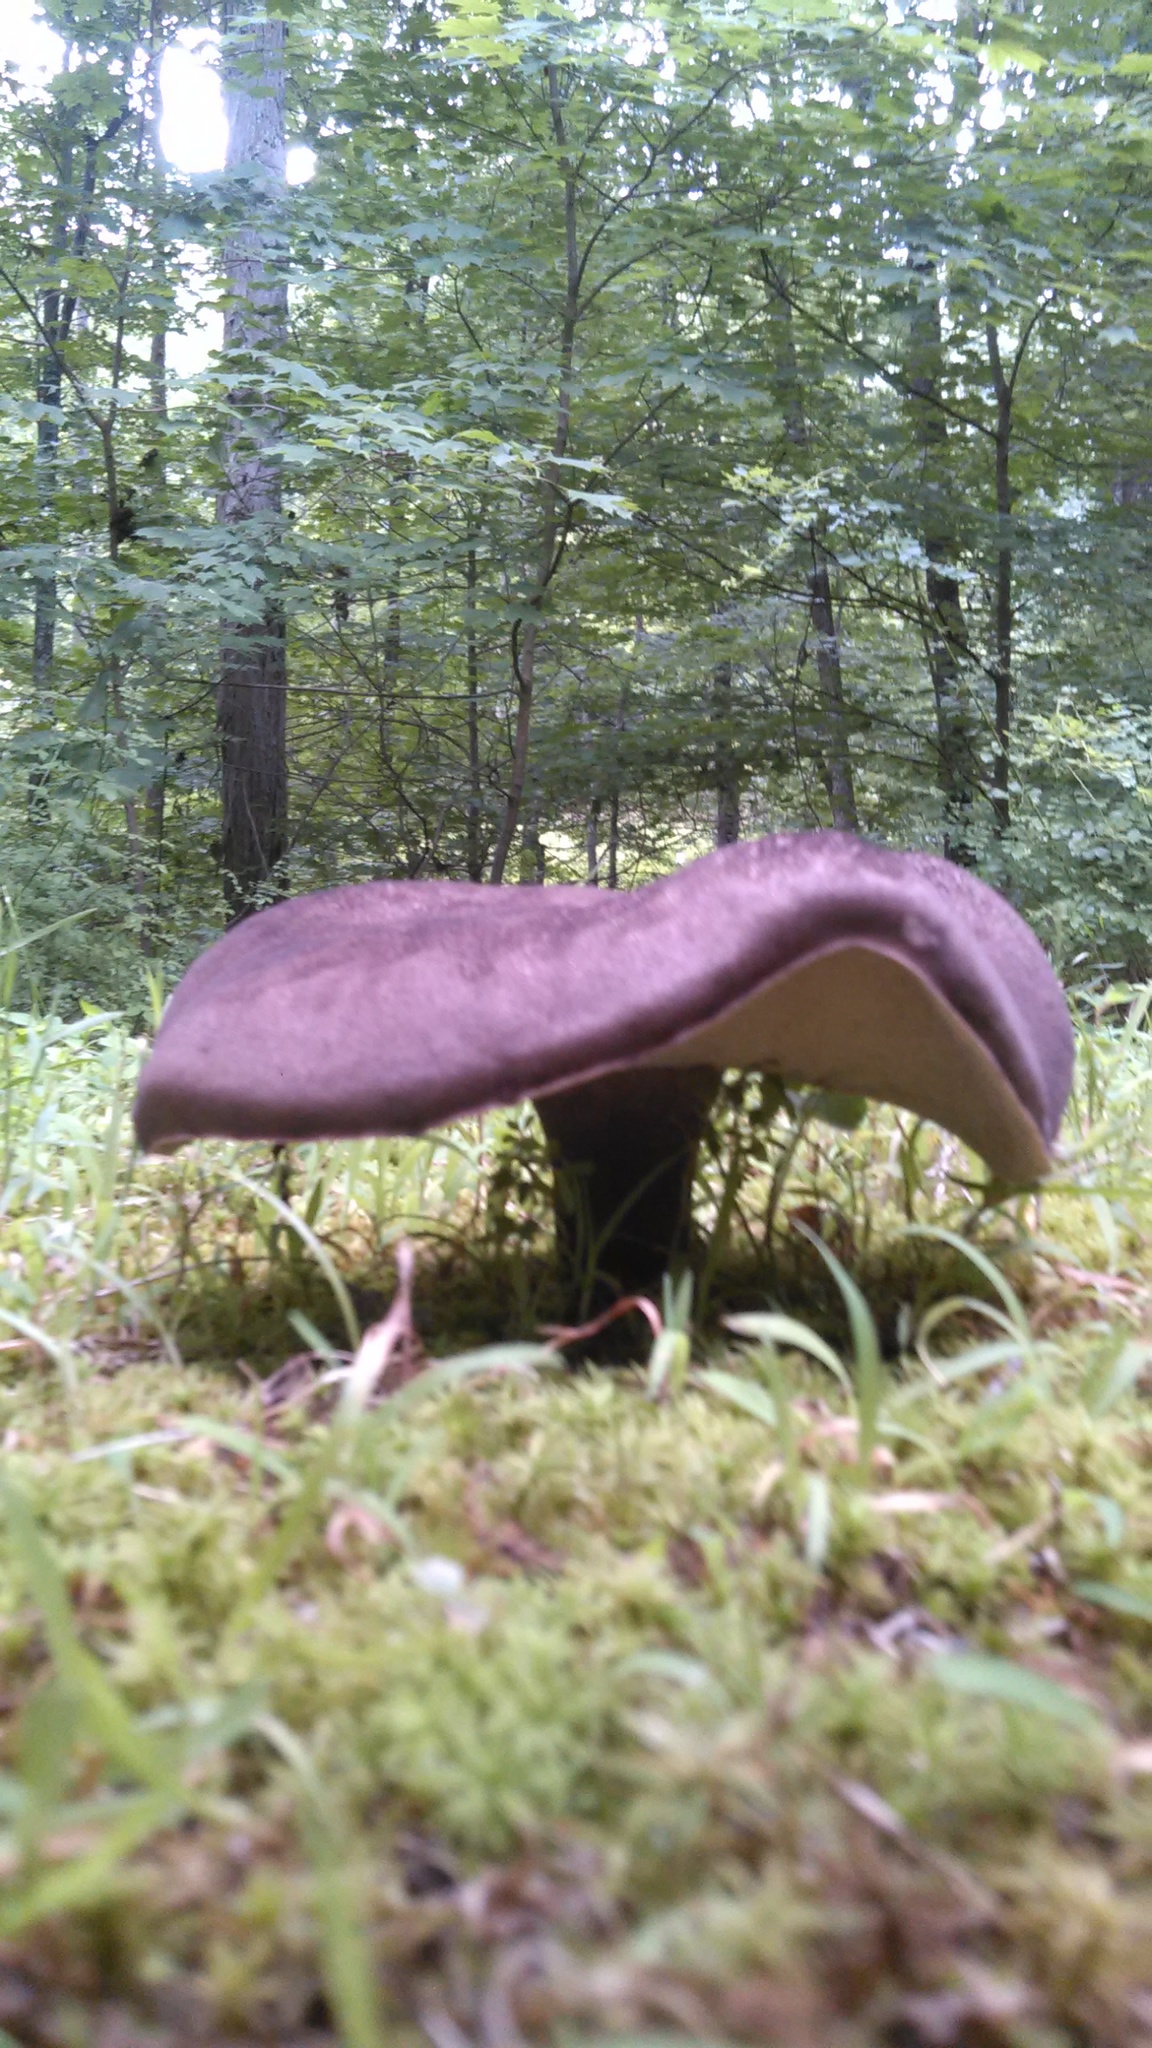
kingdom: Fungi
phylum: Basidiomycota
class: Agaricomycetes
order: Boletales
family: Boletaceae
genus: Tylopilus
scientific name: Tylopilus alboater
